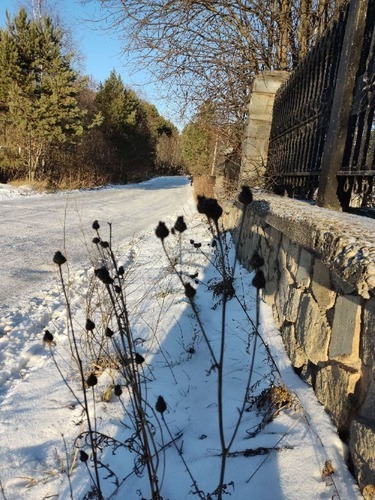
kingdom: Plantae
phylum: Tracheophyta
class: Magnoliopsida
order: Asterales
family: Asteraceae
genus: Centaurea
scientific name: Centaurea scabiosa
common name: Greater knapweed
